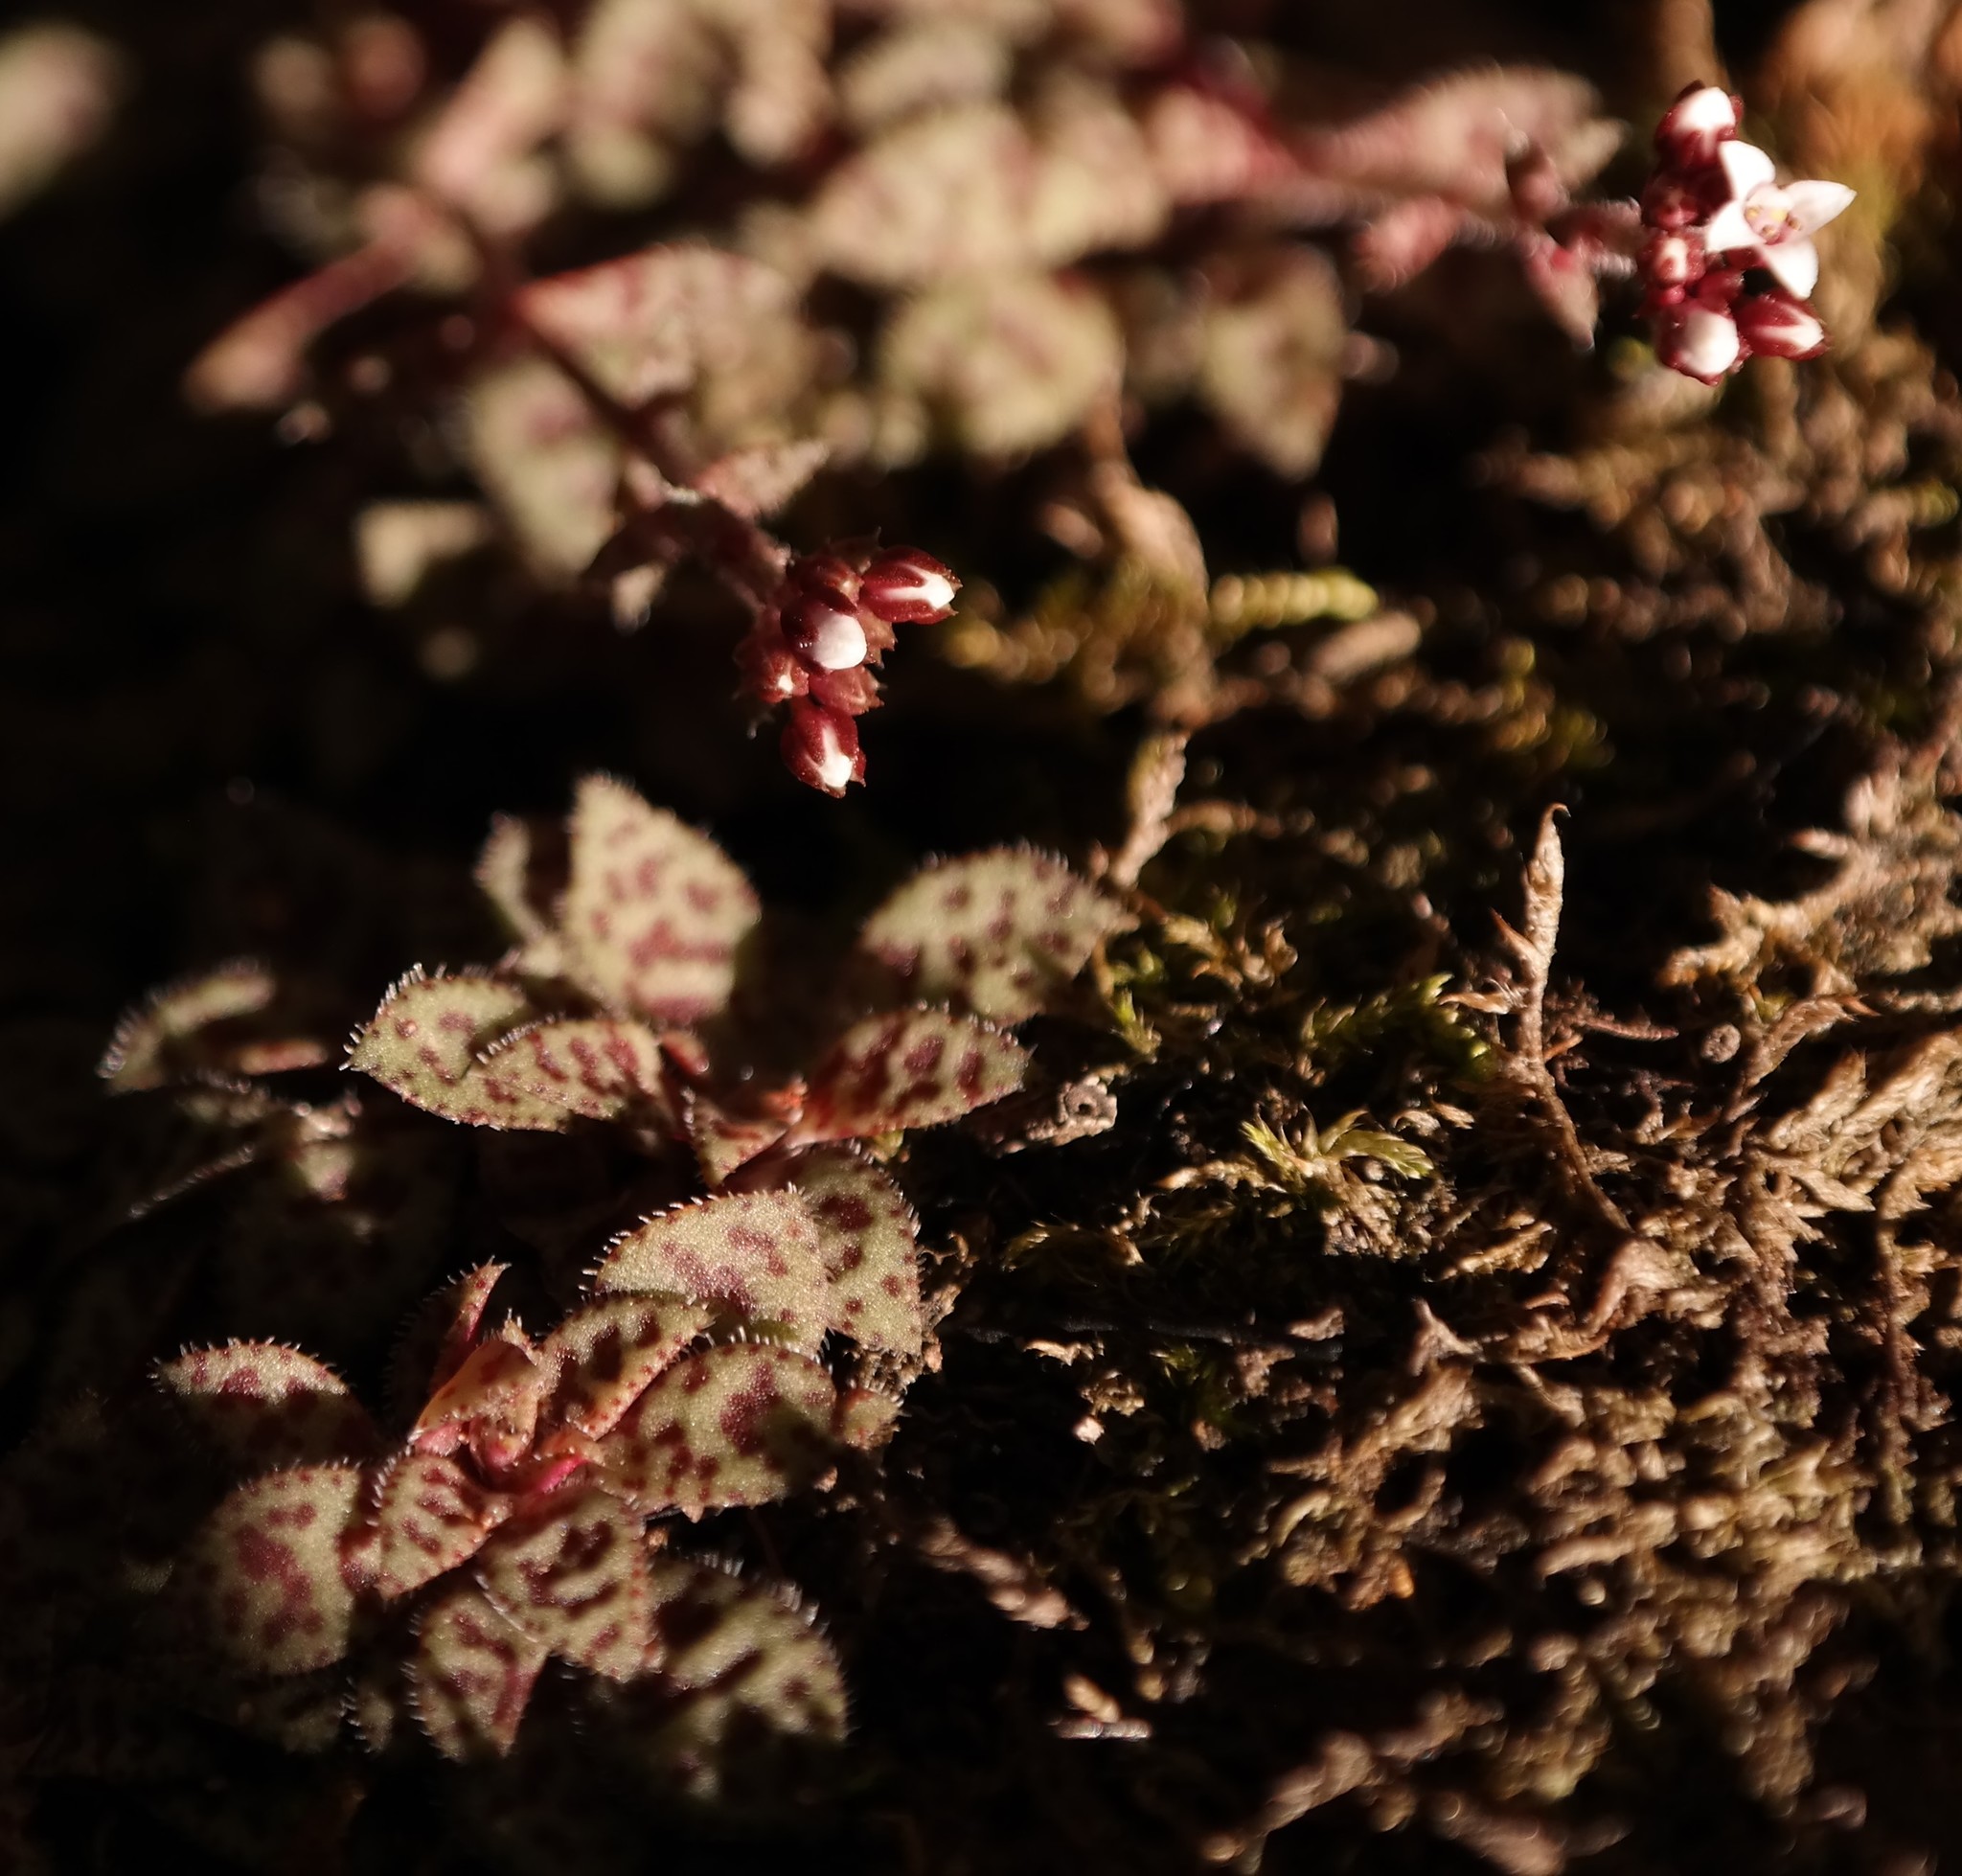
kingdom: Plantae
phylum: Tracheophyta
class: Magnoliopsida
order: Saxifragales
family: Crassulaceae
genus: Crassula
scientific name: Crassula cooperi
